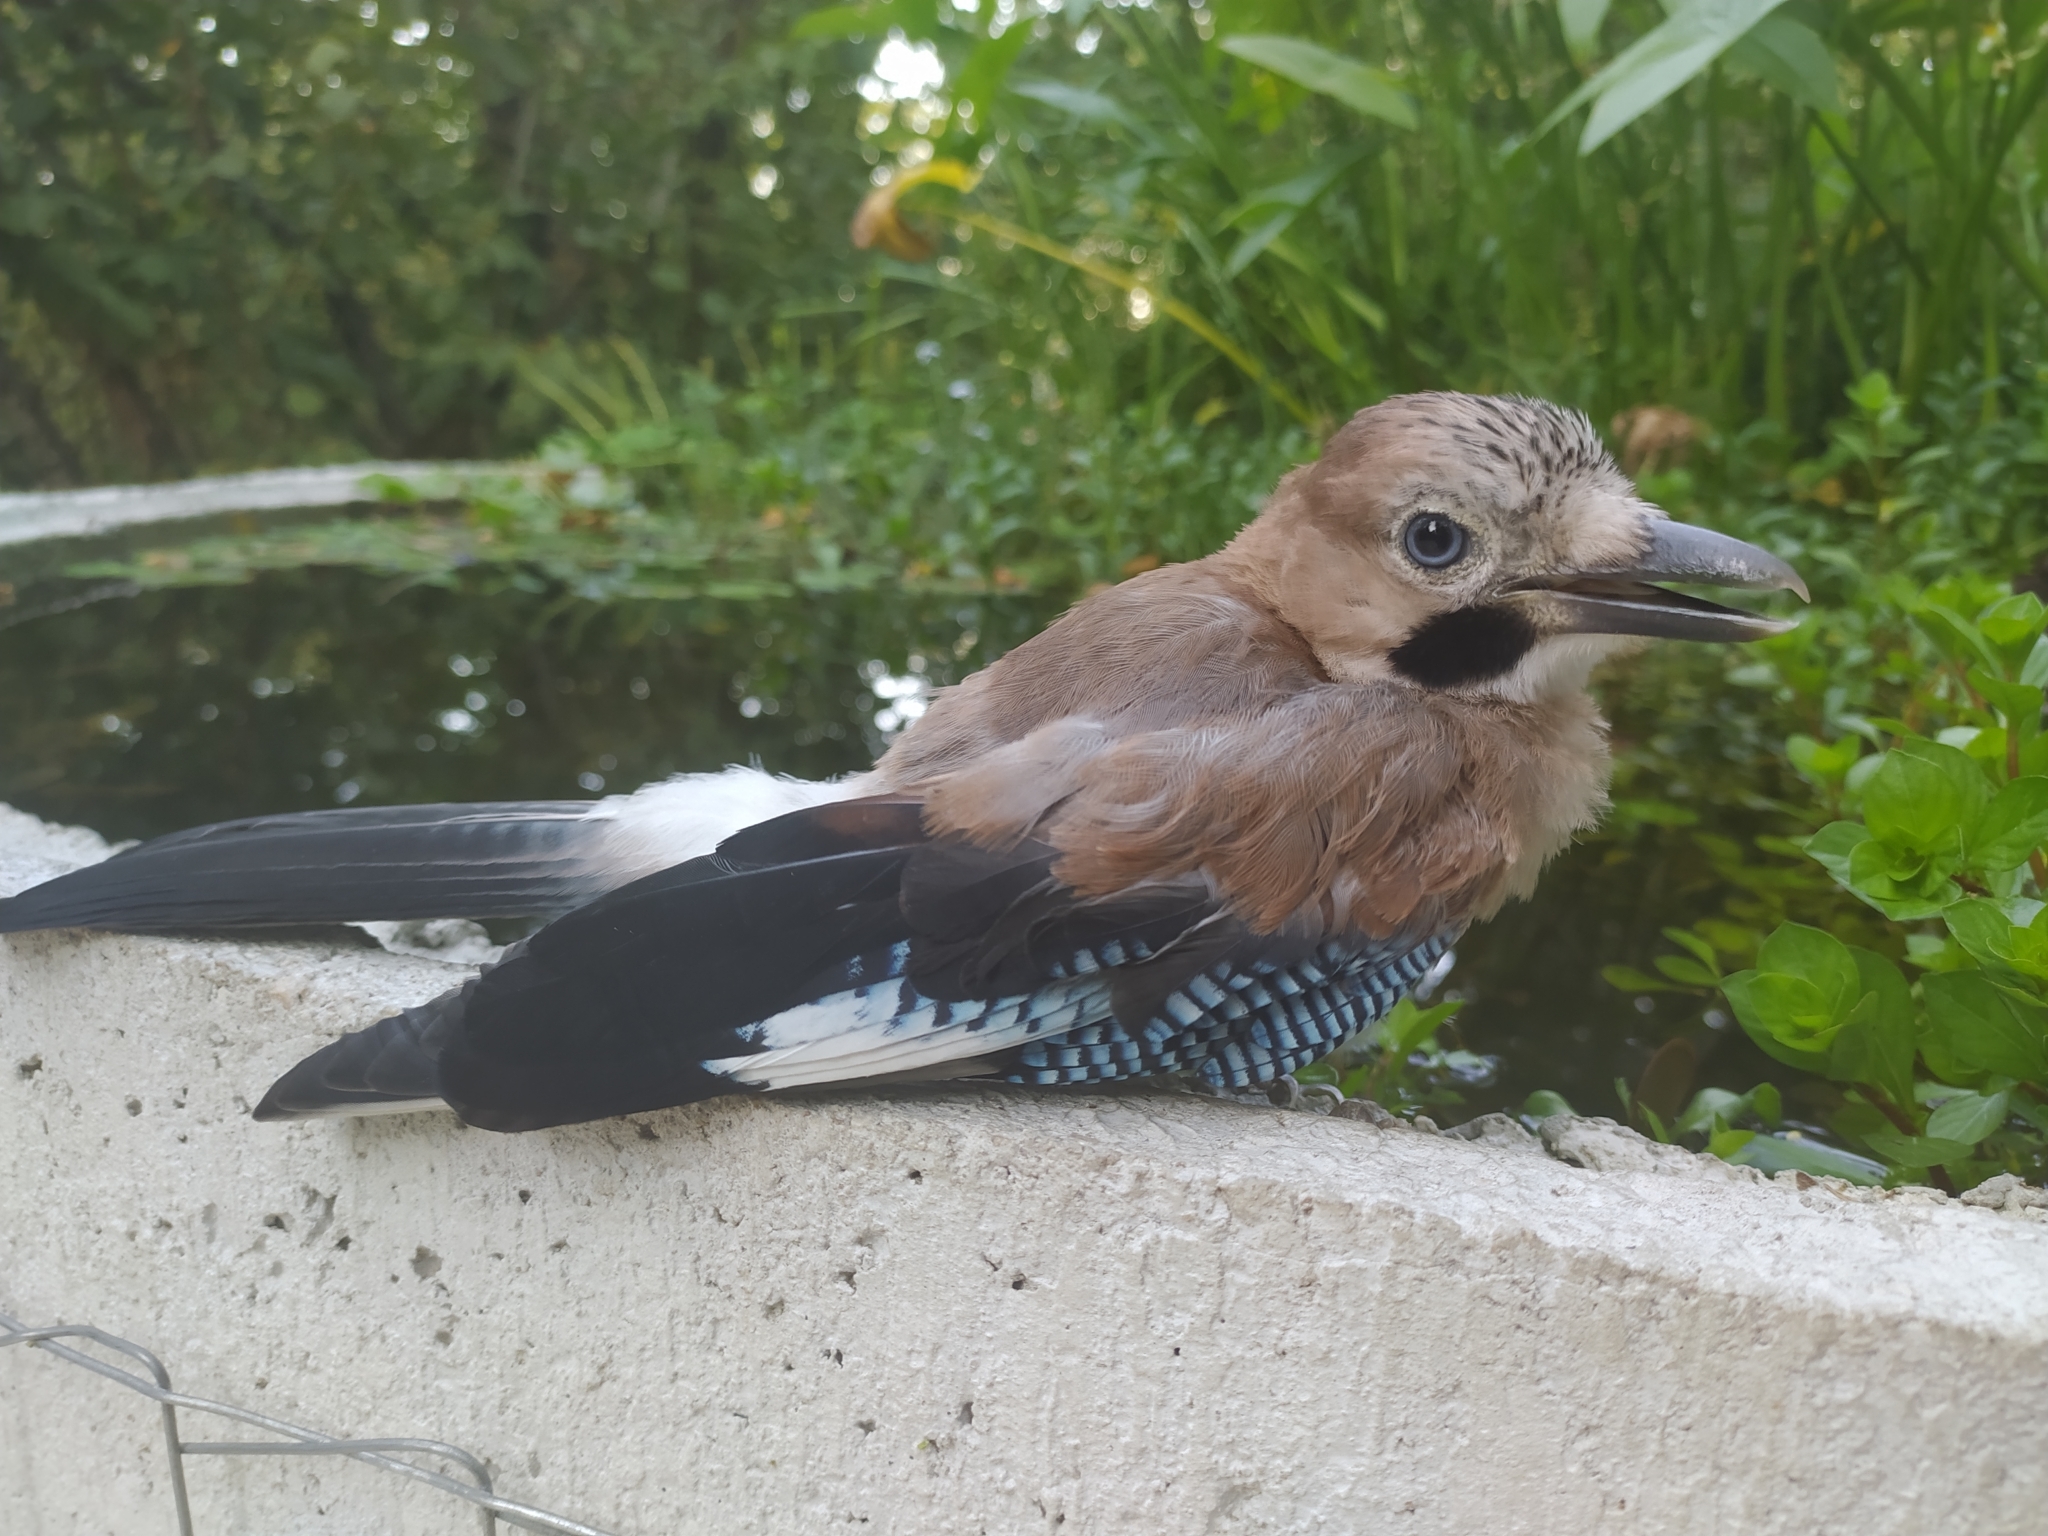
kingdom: Animalia
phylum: Chordata
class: Aves
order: Passeriformes
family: Corvidae
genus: Garrulus
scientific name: Garrulus glandarius
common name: Eurasian jay
